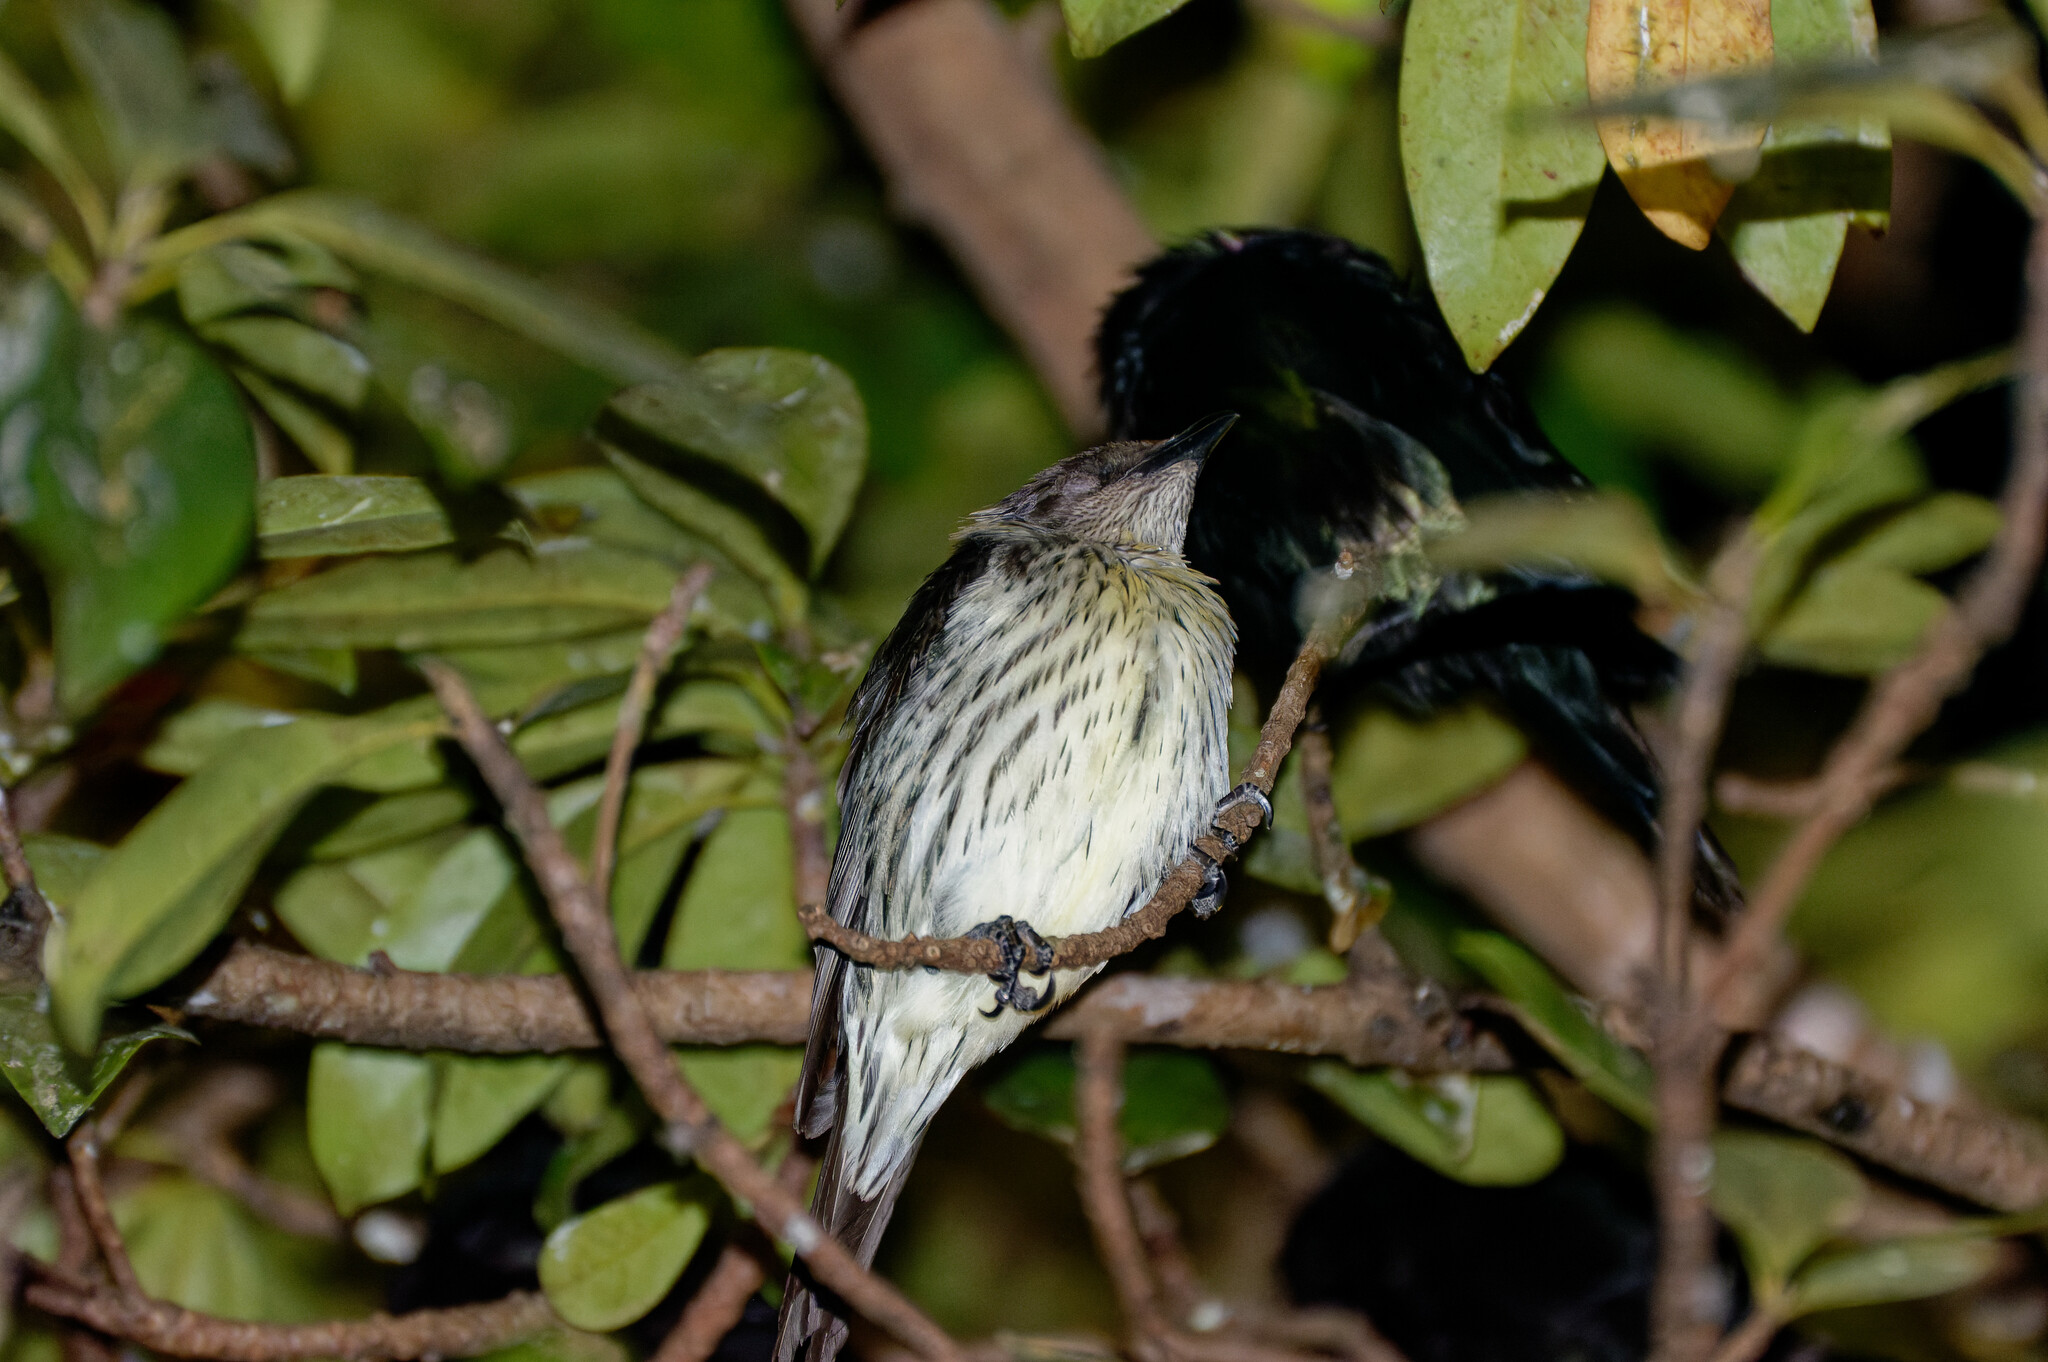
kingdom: Animalia
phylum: Chordata
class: Aves
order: Passeriformes
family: Sturnidae
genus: Aplonis
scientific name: Aplonis metallica
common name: Metallic starling
